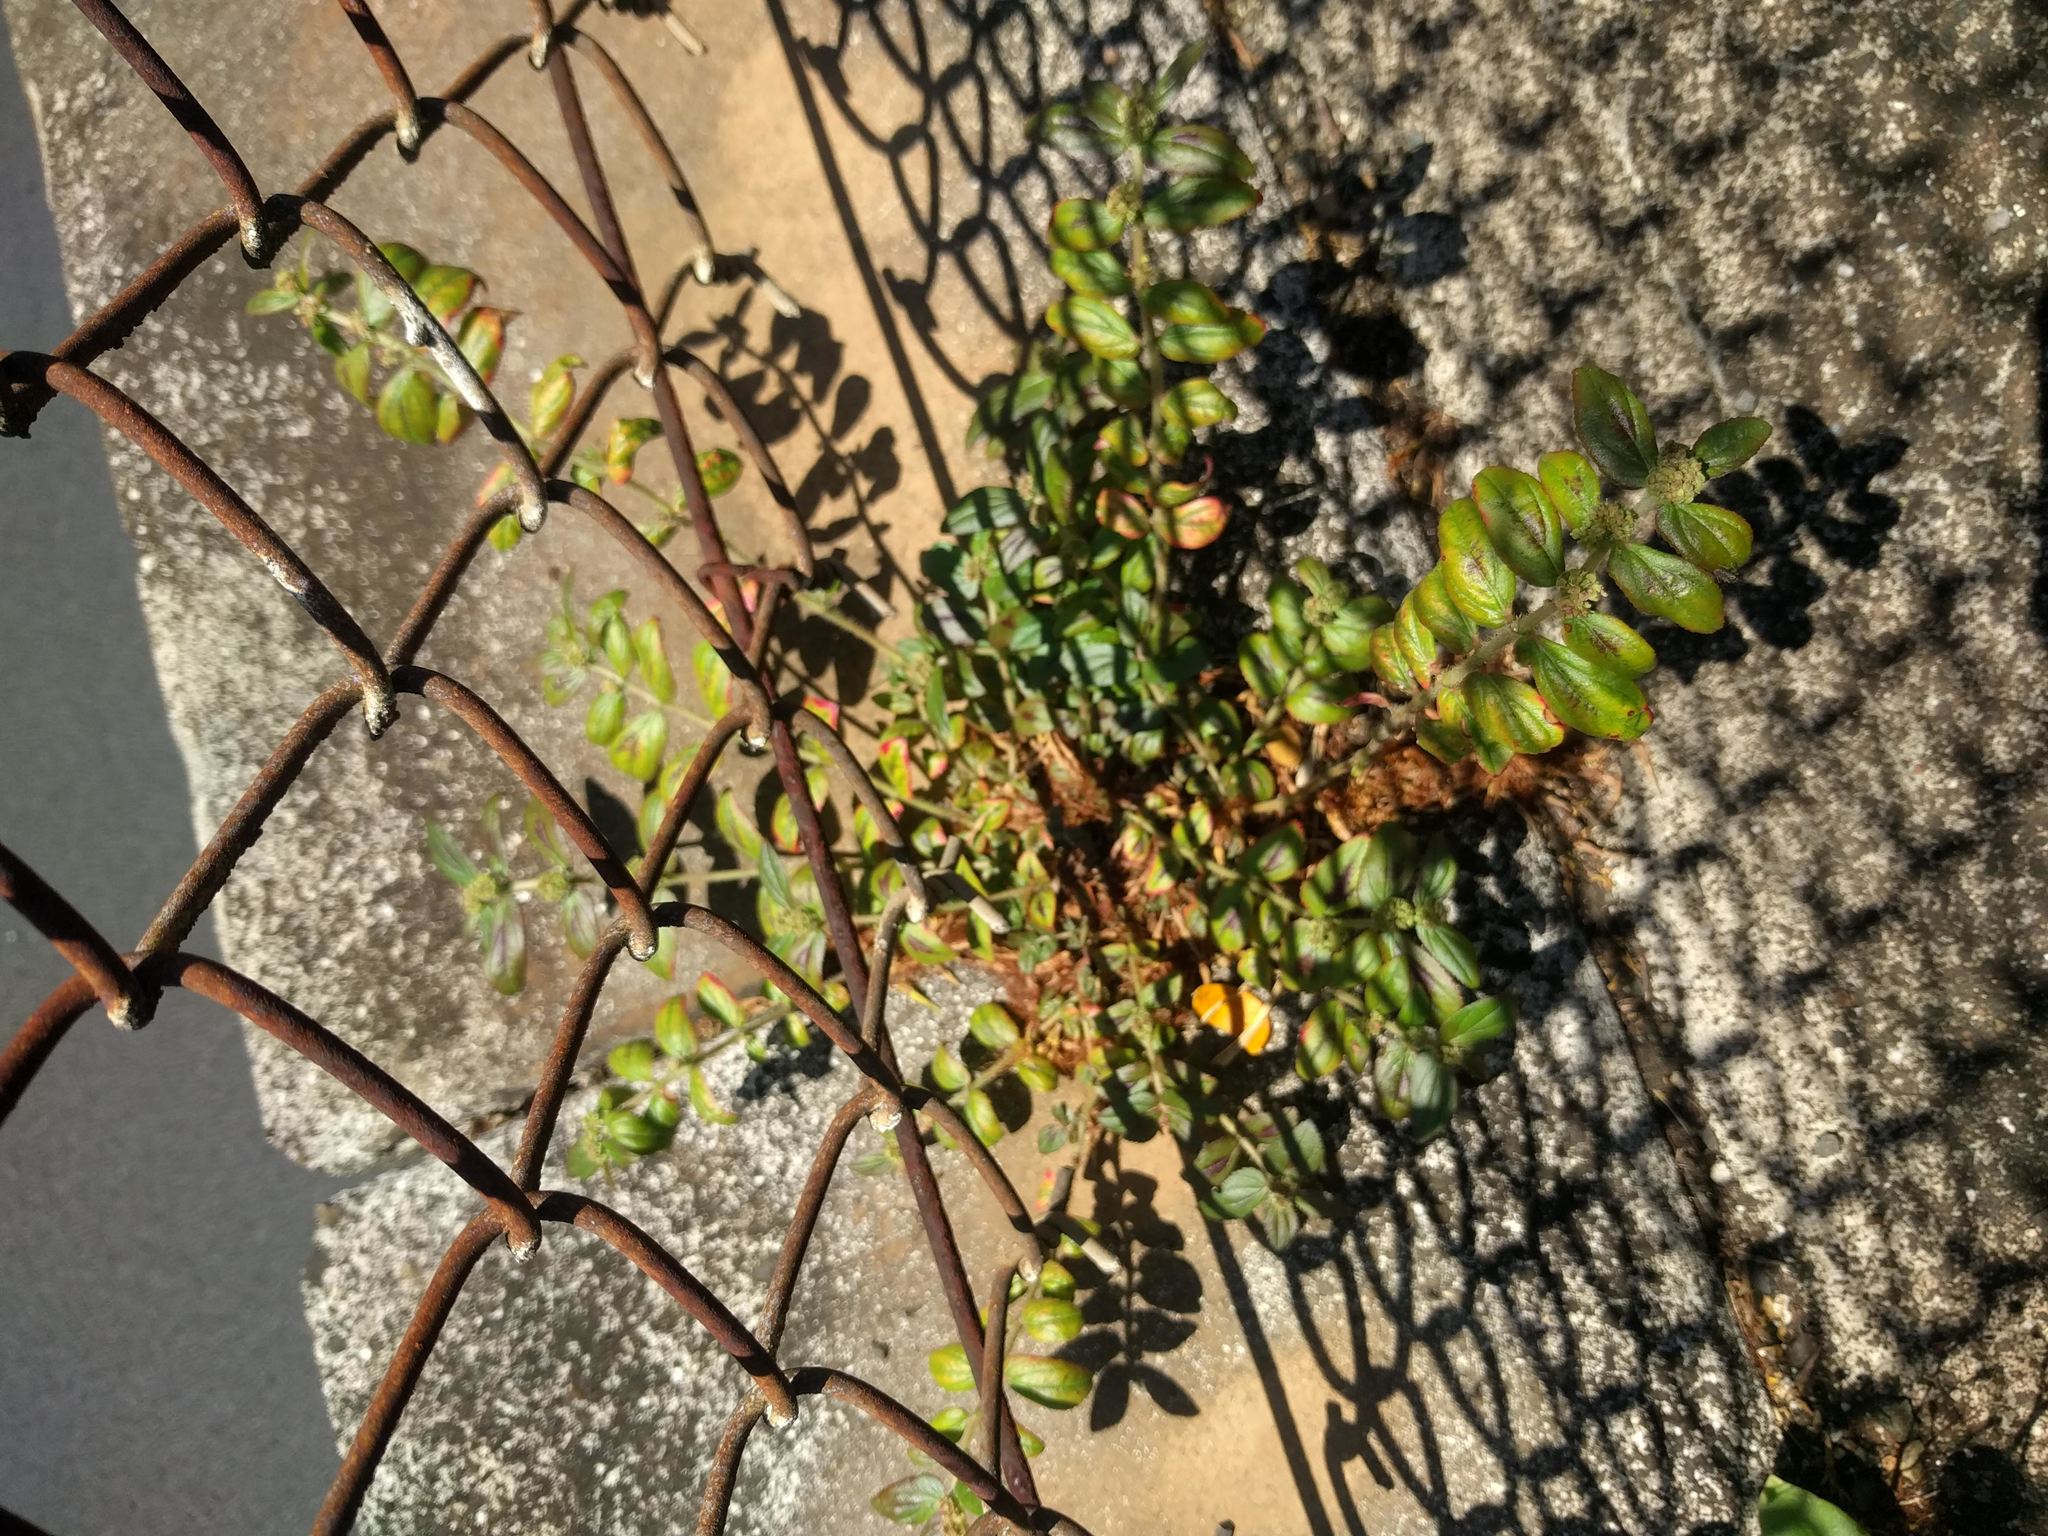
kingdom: Plantae
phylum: Tracheophyta
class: Magnoliopsida
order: Malpighiales
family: Euphorbiaceae
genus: Euphorbia
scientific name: Euphorbia hirta
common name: Pillpod sandmat
